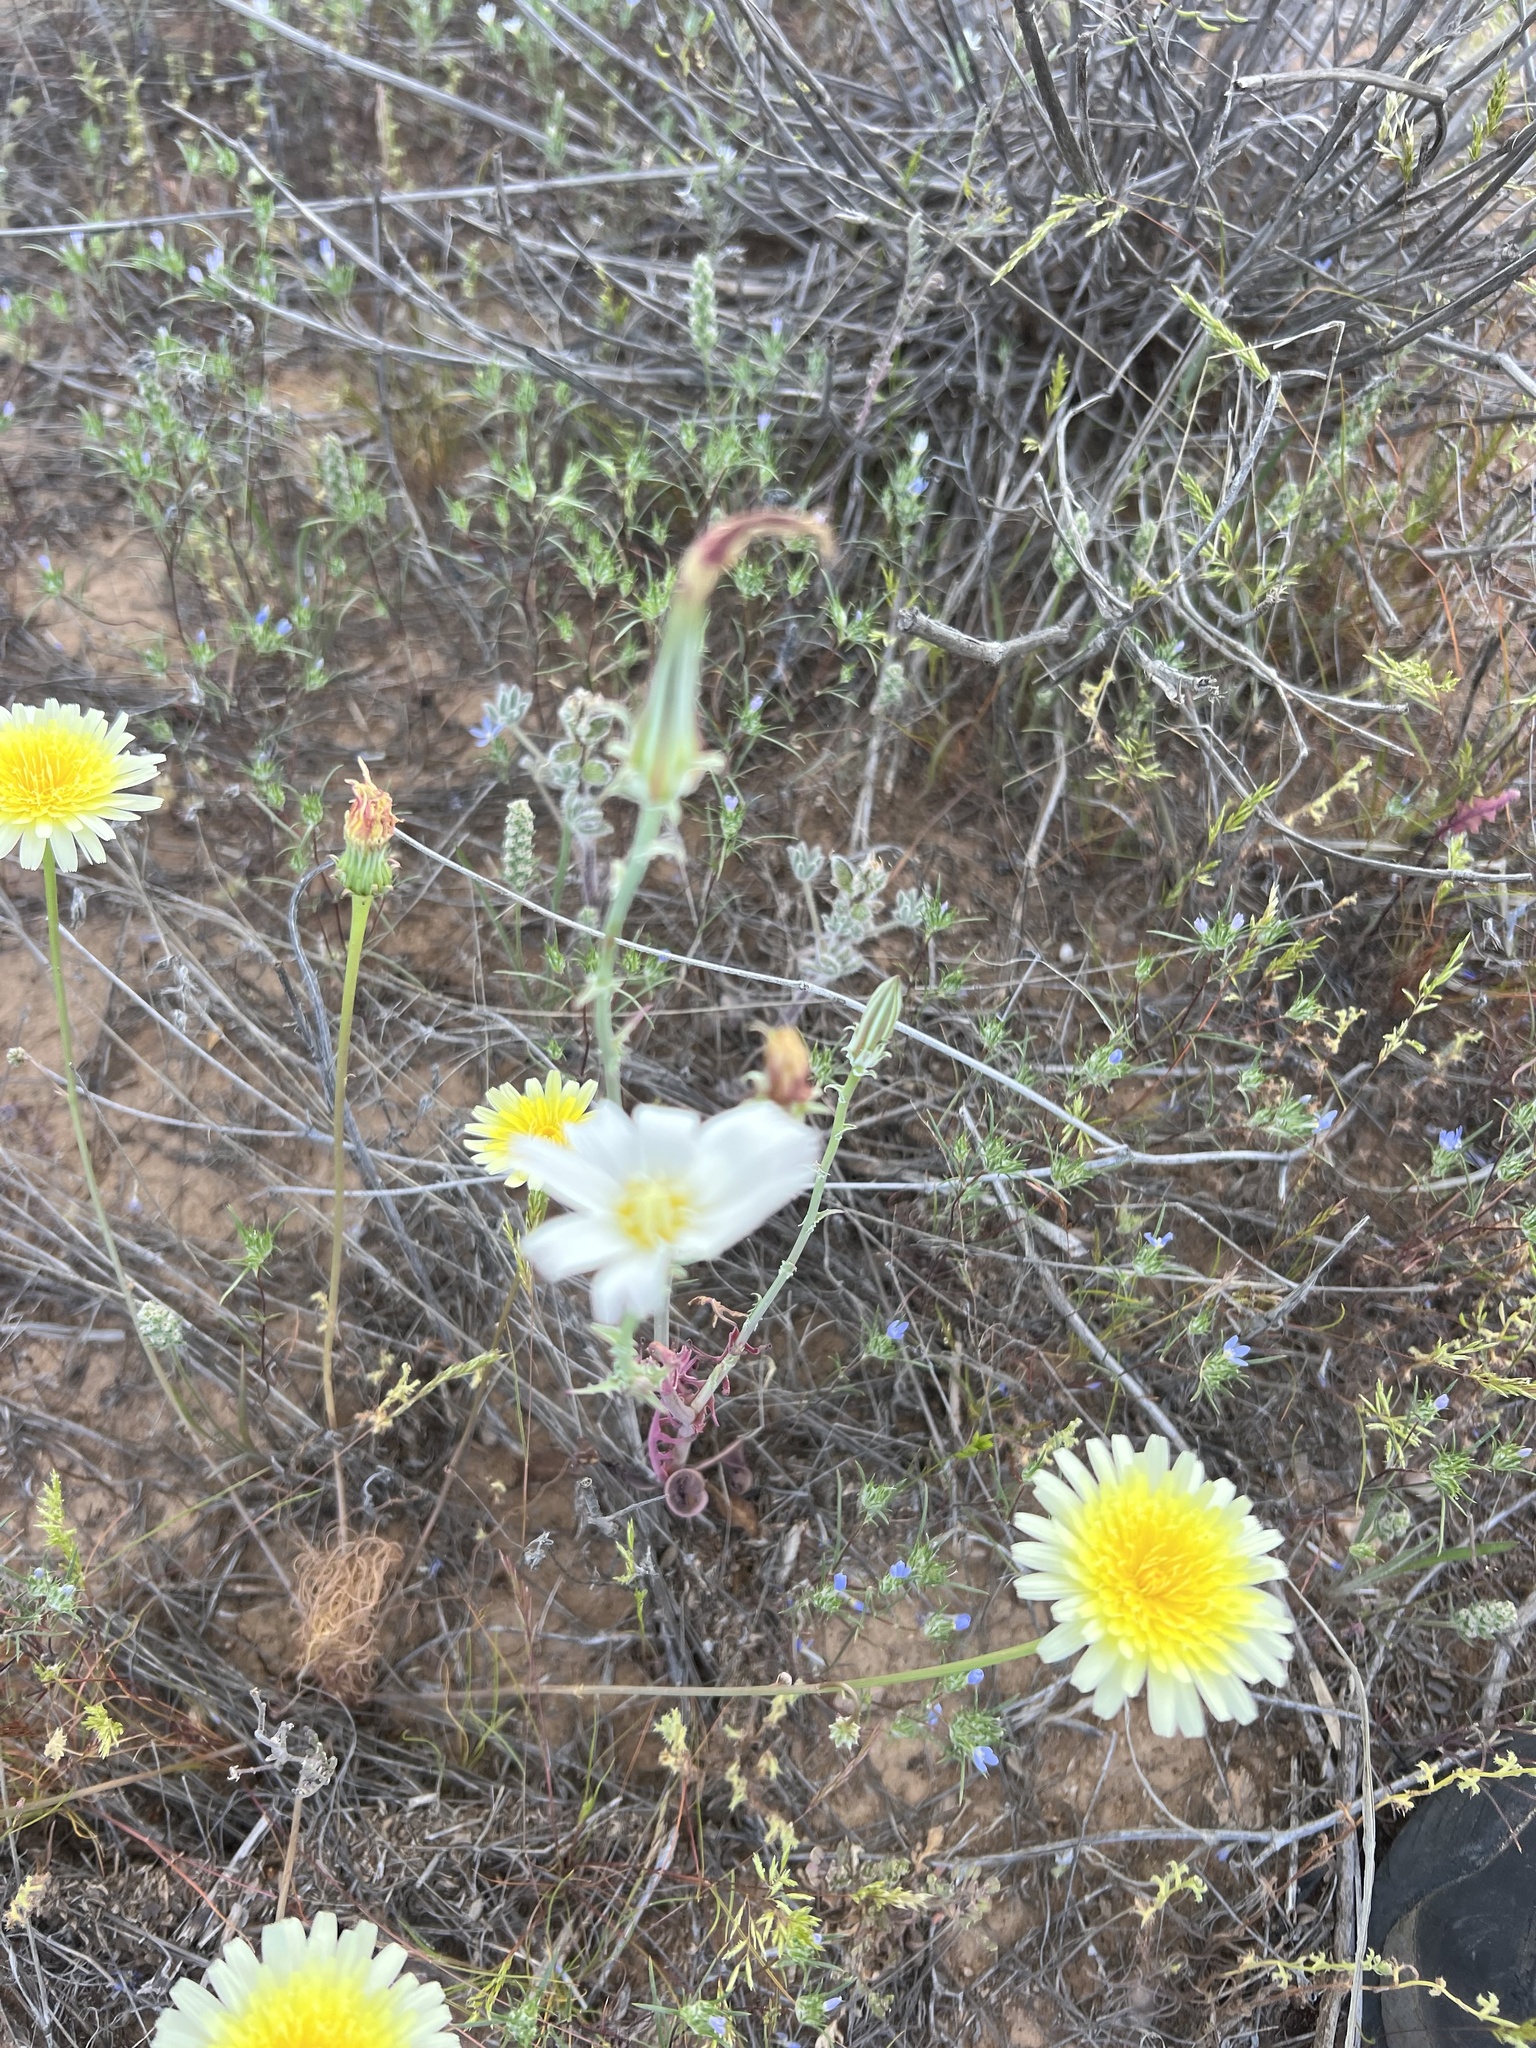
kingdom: Plantae
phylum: Tracheophyta
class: Magnoliopsida
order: Asterales
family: Asteraceae
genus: Rafinesquia
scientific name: Rafinesquia neomexicana
